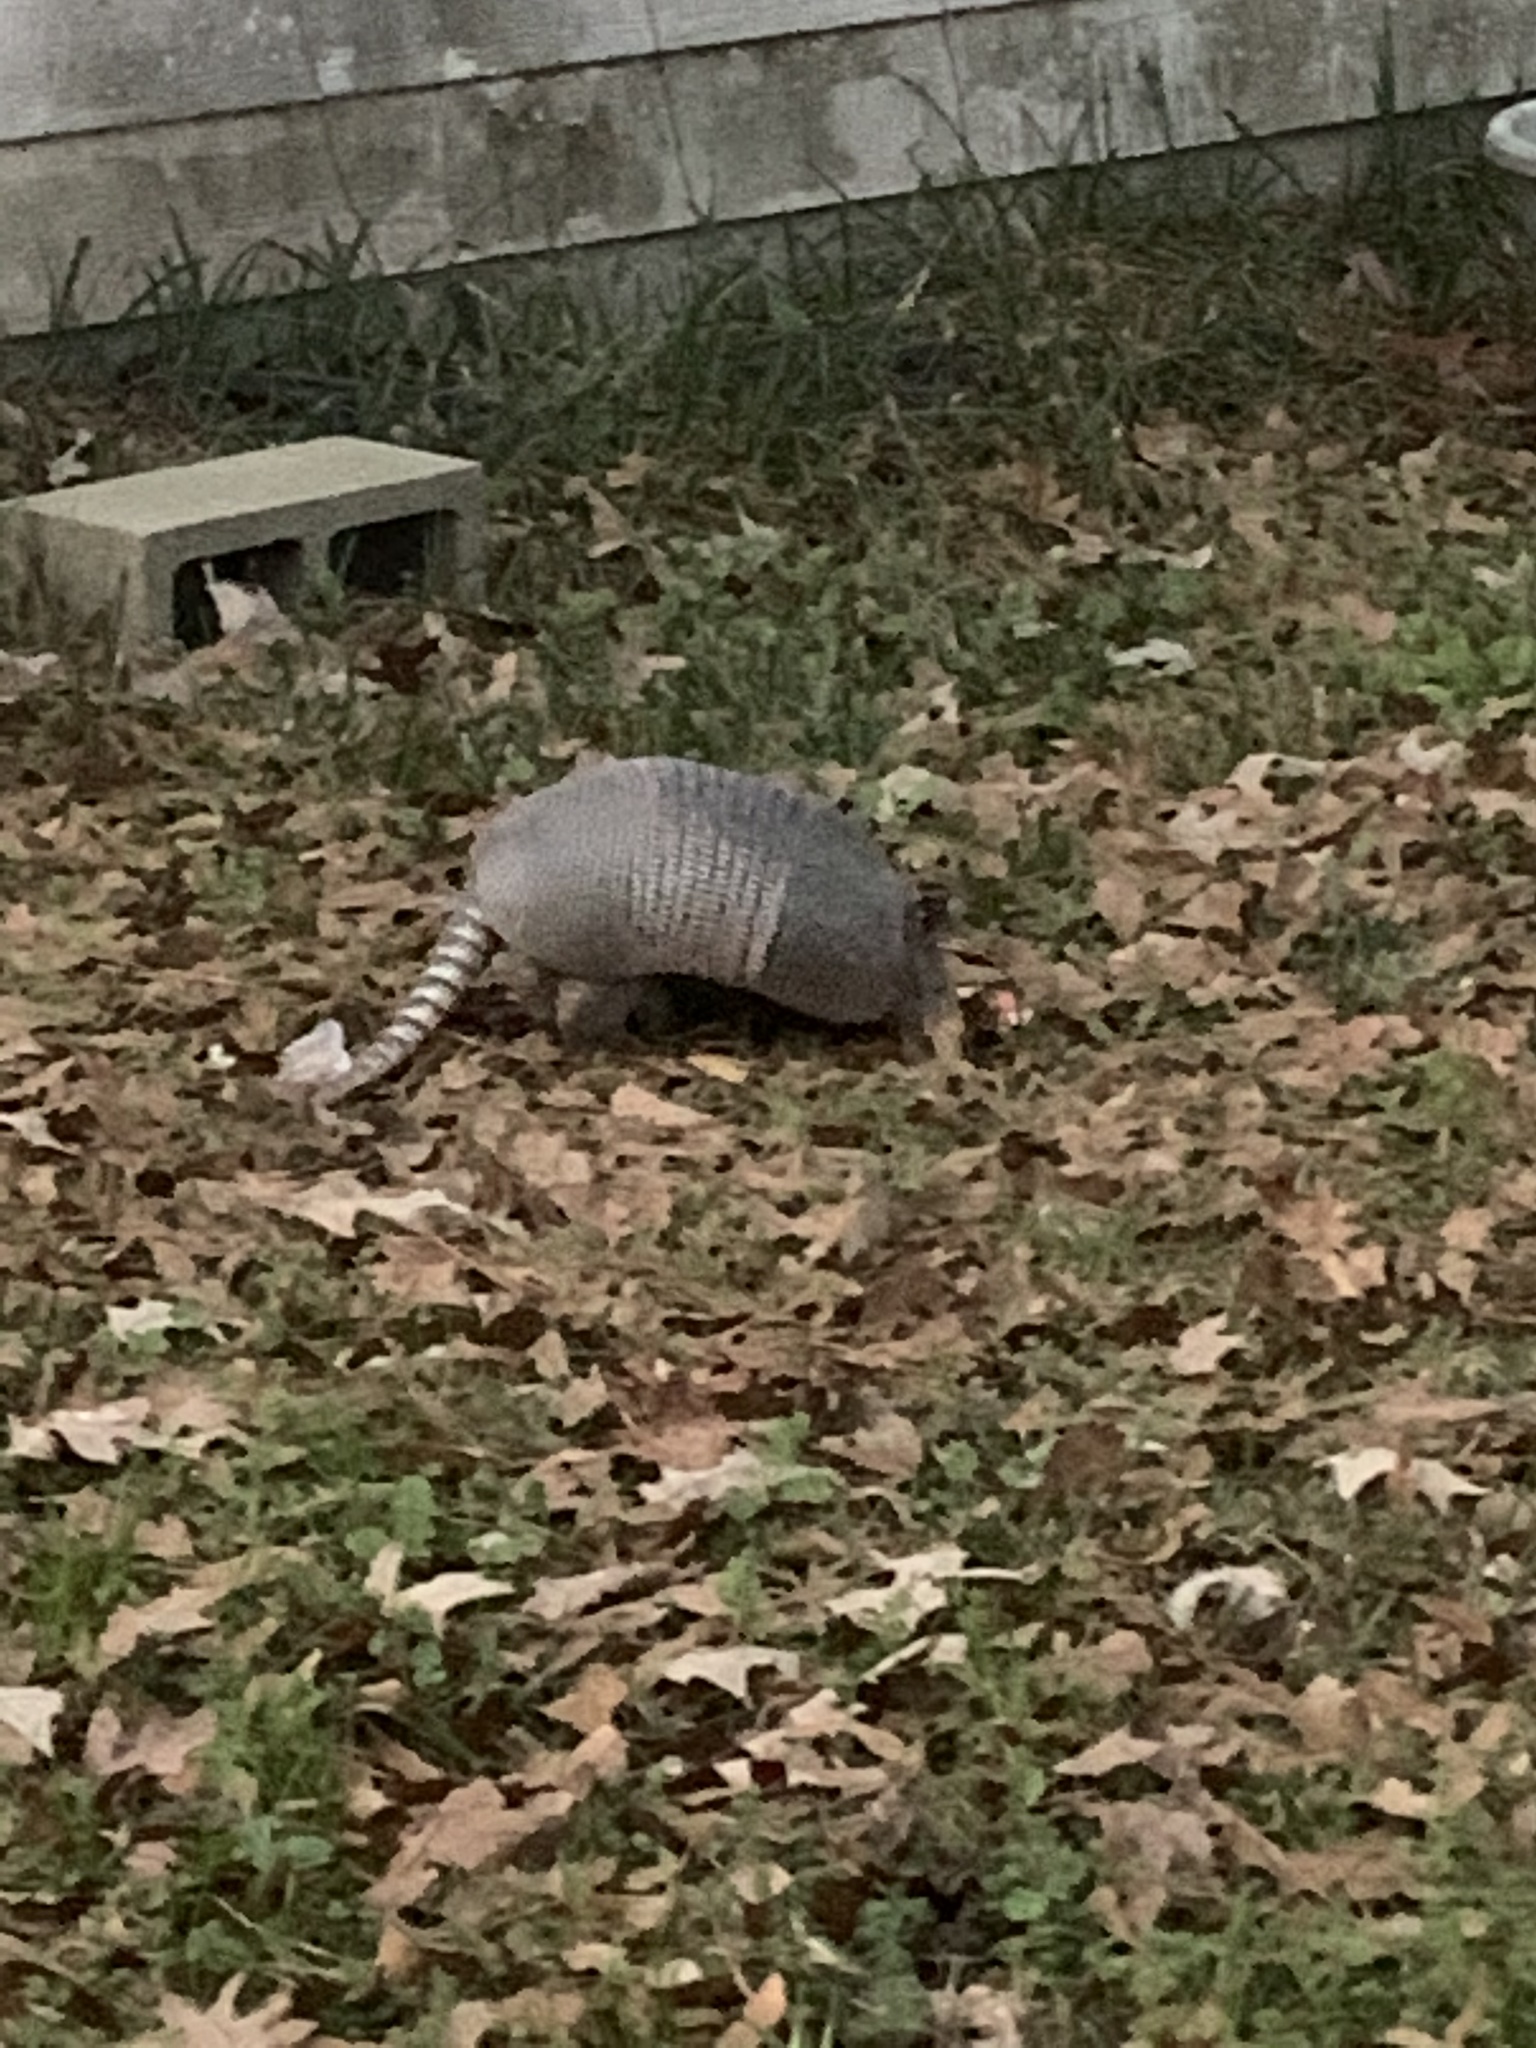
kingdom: Animalia
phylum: Chordata
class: Mammalia
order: Cingulata
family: Dasypodidae
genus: Dasypus
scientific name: Dasypus novemcinctus
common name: Nine-banded armadillo
